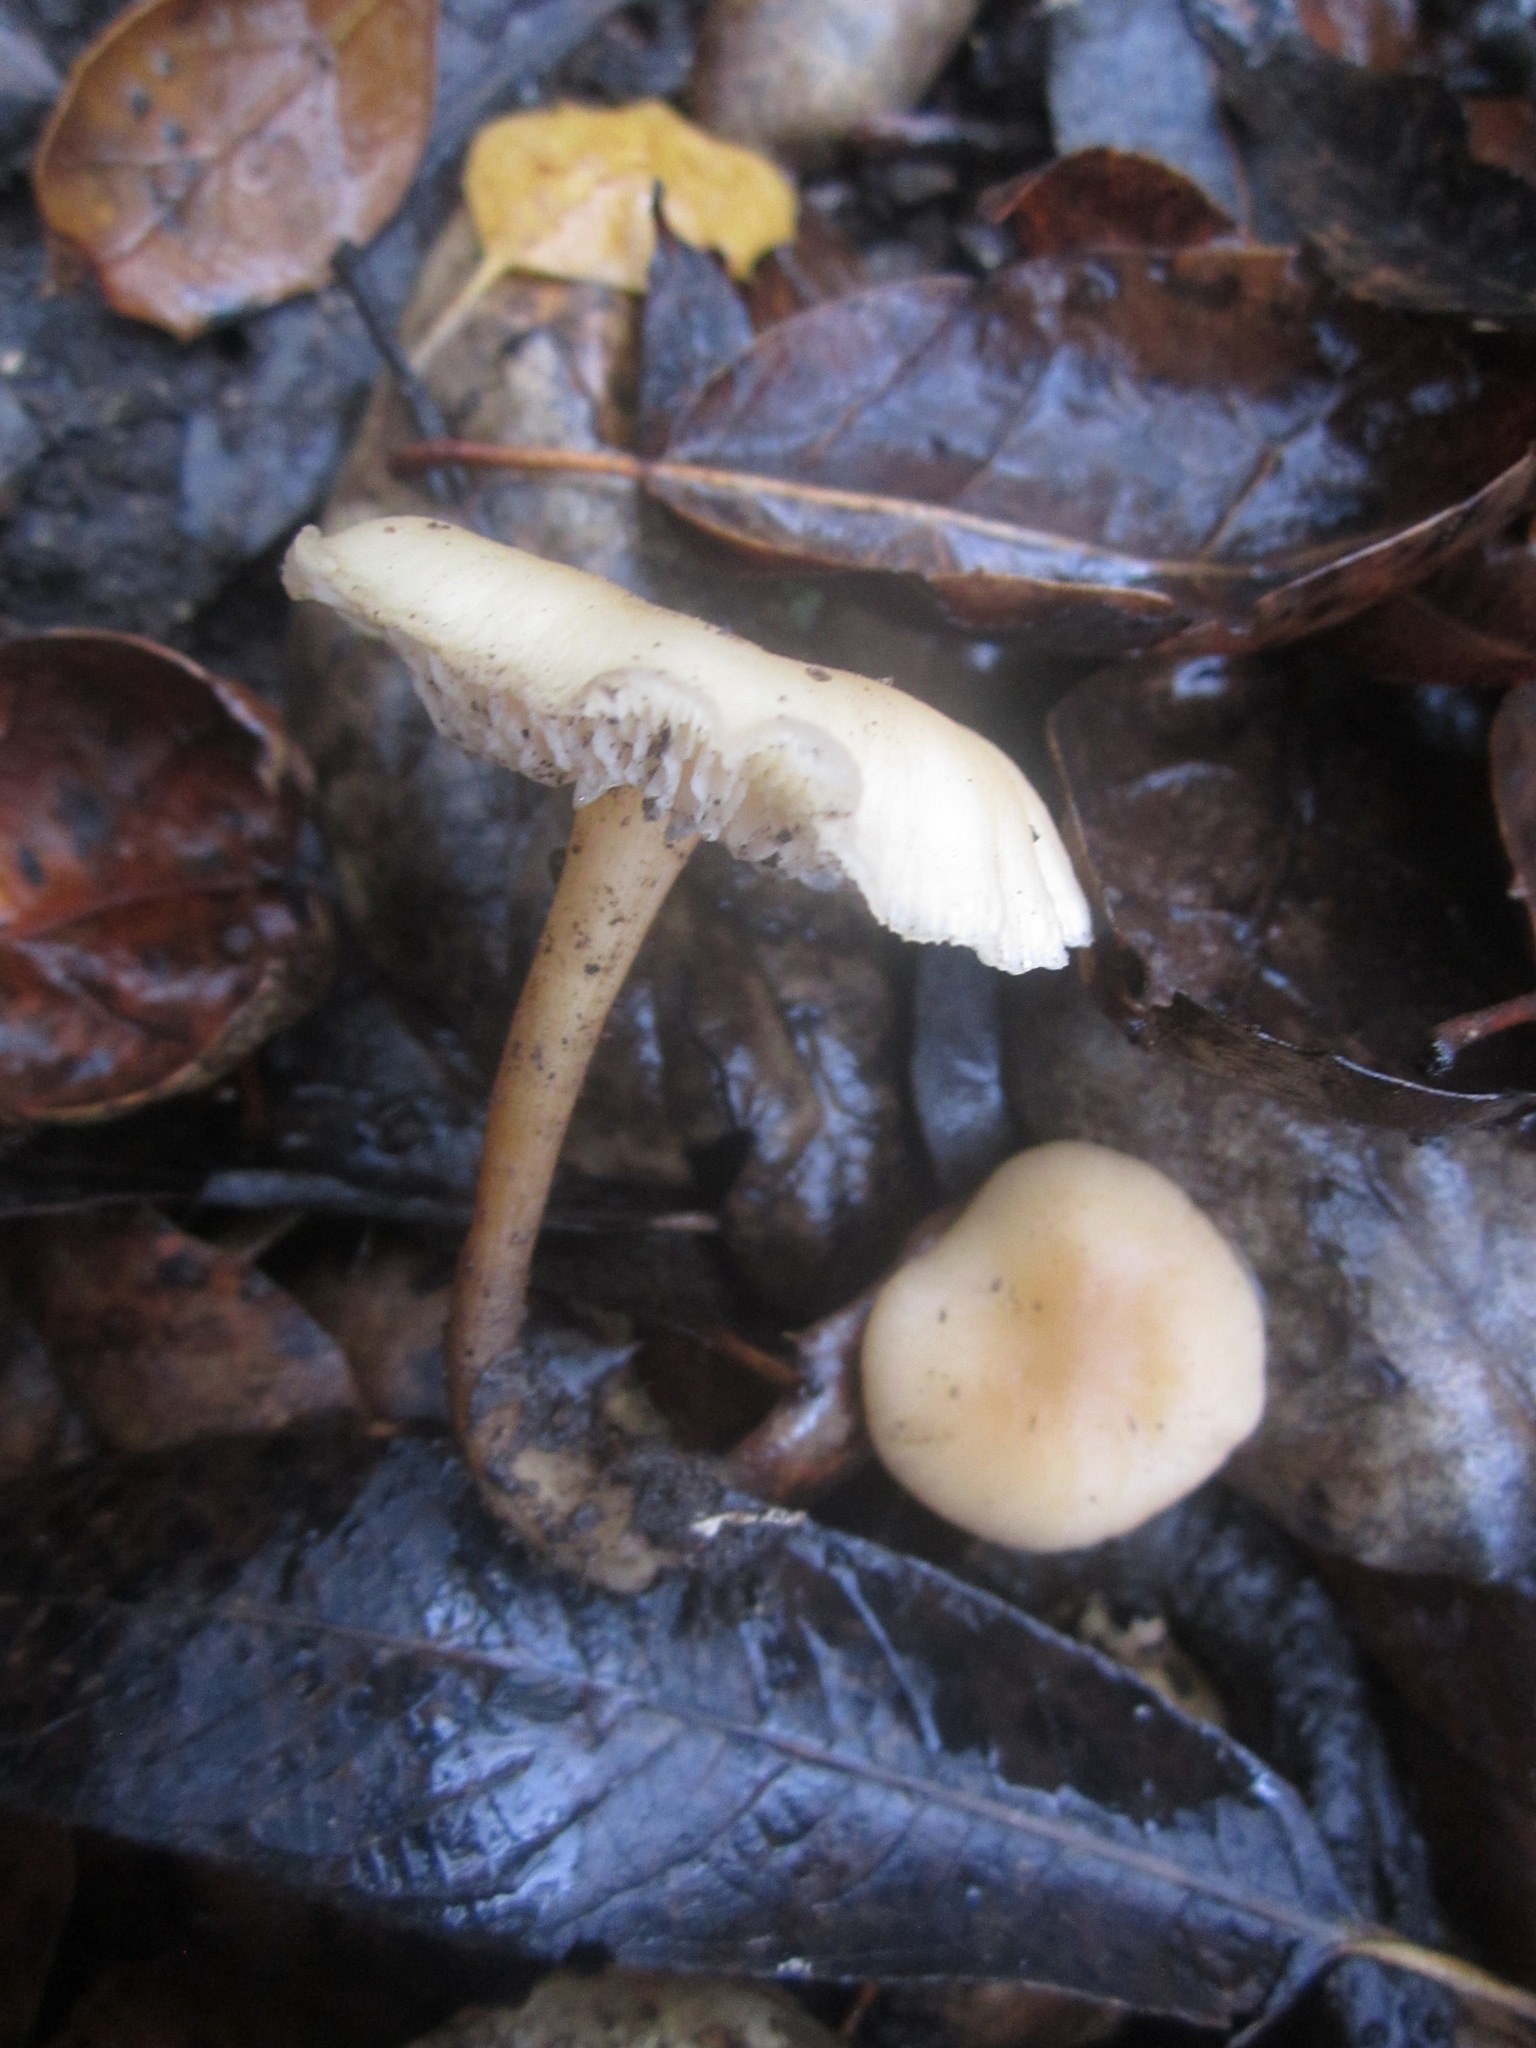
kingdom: Fungi
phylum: Basidiomycota
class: Agaricomycetes
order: Agaricales
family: Omphalotaceae
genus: Gymnopus
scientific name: Gymnopus dryophilus
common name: Penny top
